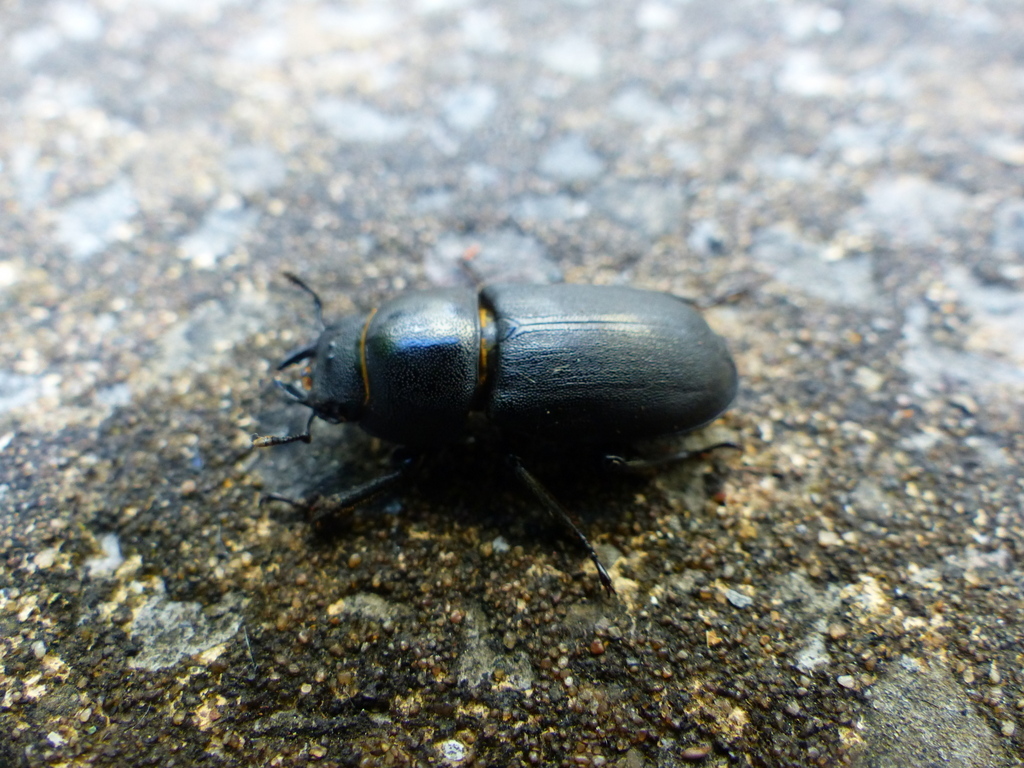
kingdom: Animalia
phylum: Arthropoda
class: Insecta
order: Coleoptera
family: Lucanidae
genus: Dorcus
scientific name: Dorcus parallelipipedus
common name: Lesser stag beetle
